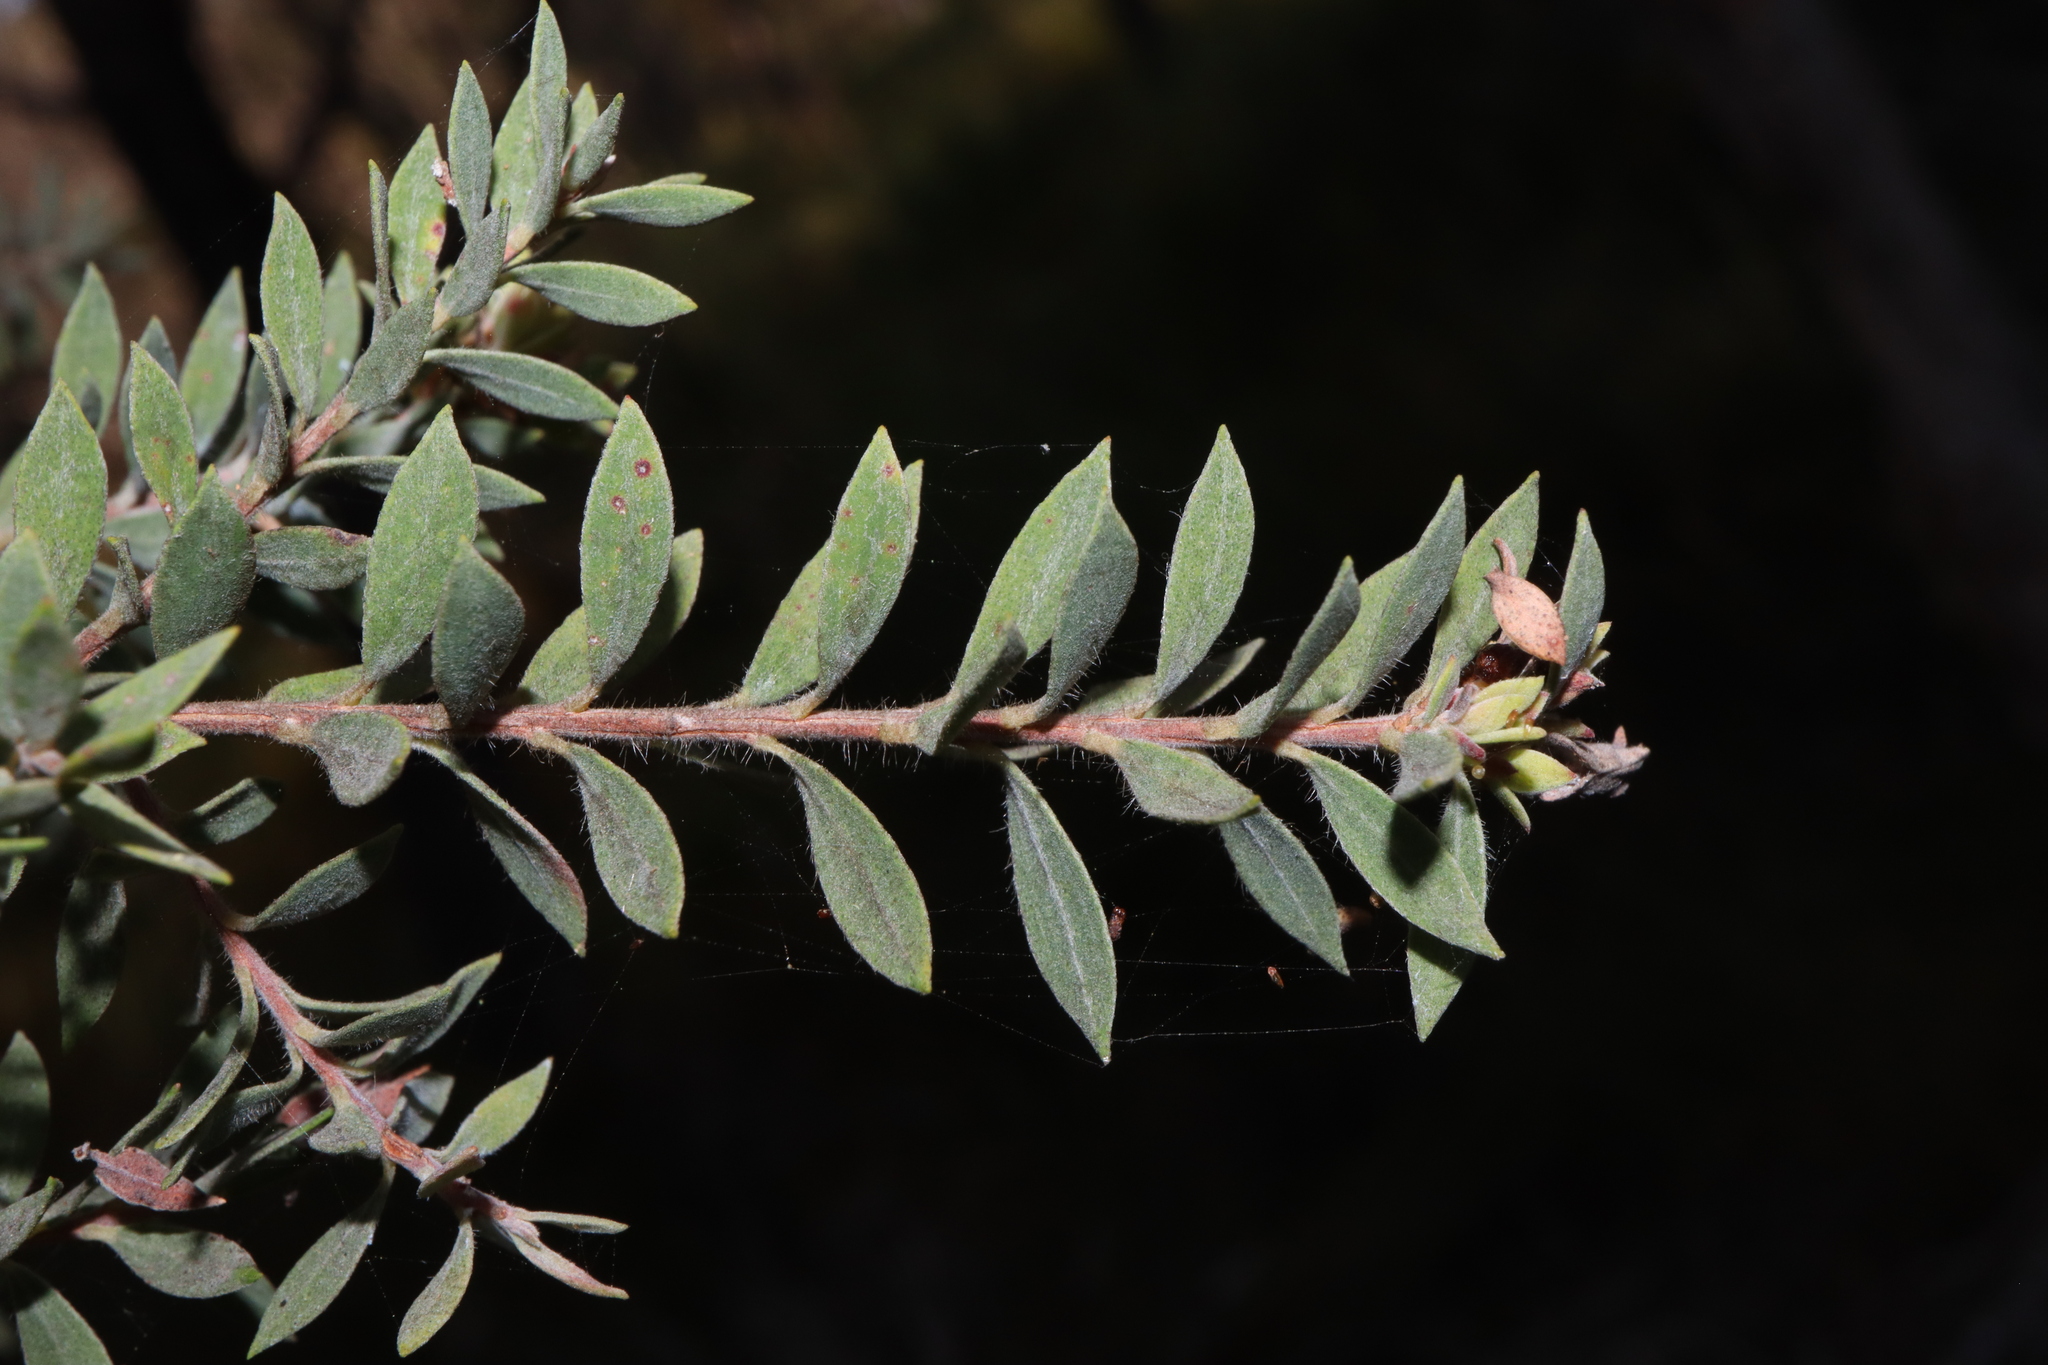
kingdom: Plantae
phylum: Tracheophyta
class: Magnoliopsida
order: Myrtales
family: Myrtaceae
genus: Melaleuca
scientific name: Melaleuca sieberi
